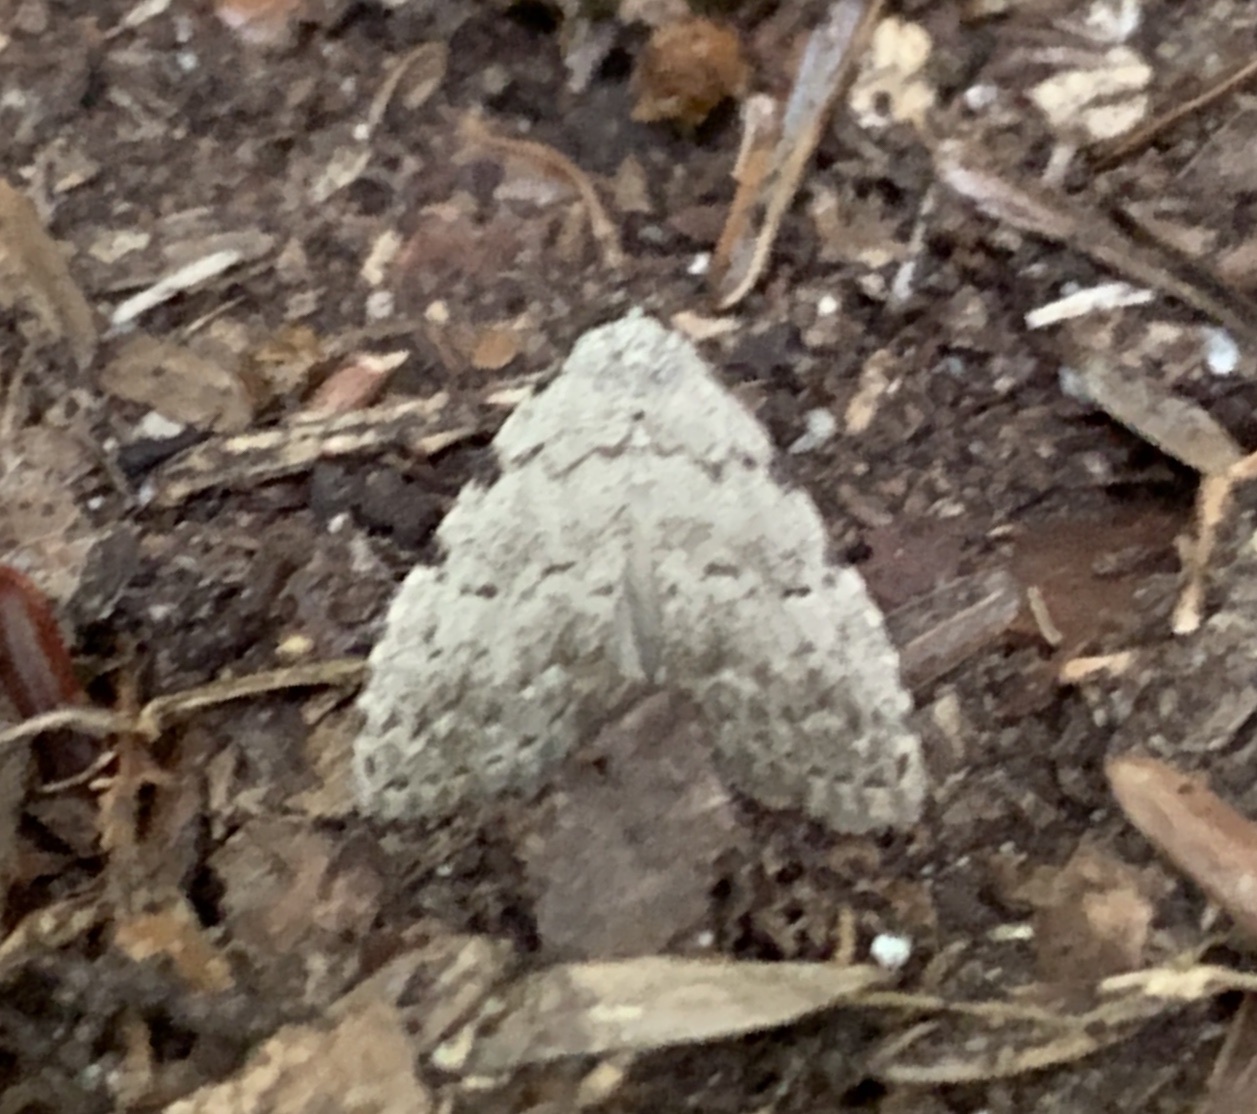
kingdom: Animalia
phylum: Arthropoda
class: Insecta
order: Lepidoptera
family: Erebidae
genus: Dyspyralis
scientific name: Dyspyralis puncticosta
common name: Spot-edged dyspyralis moth
